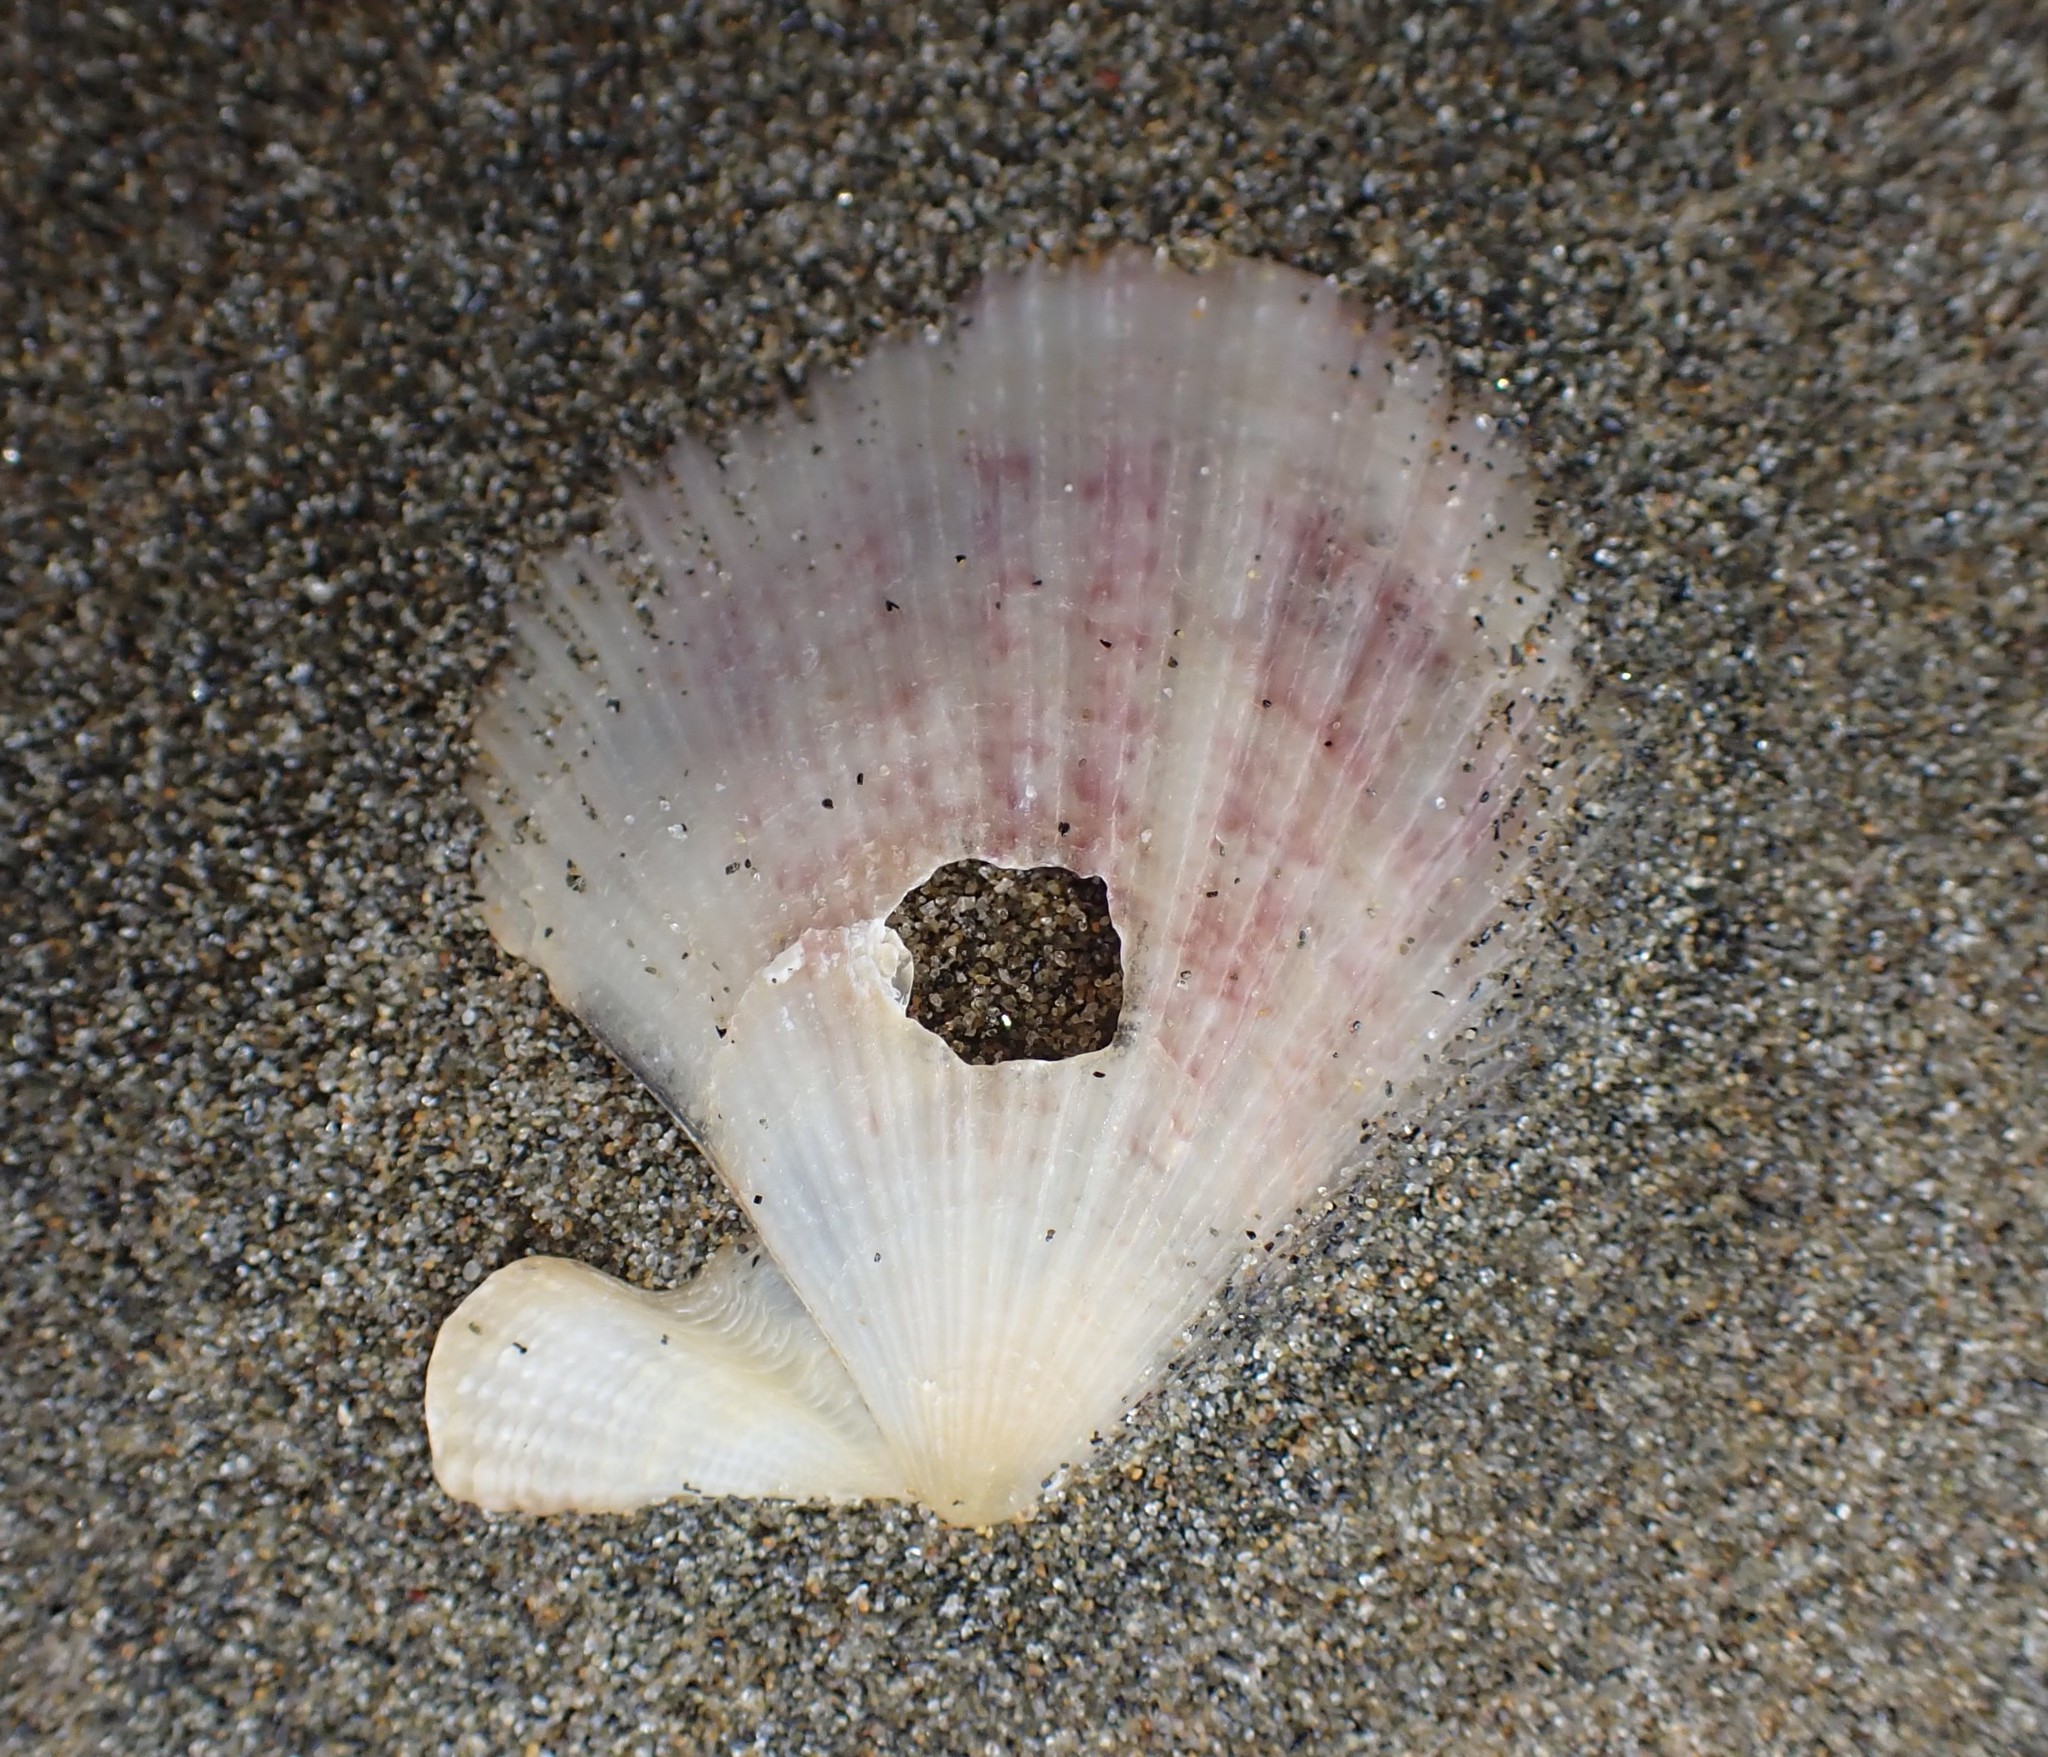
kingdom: Animalia
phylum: Mollusca
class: Bivalvia
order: Pectinida
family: Pectinidae
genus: Talochlamys
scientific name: Talochlamys zelandiae
